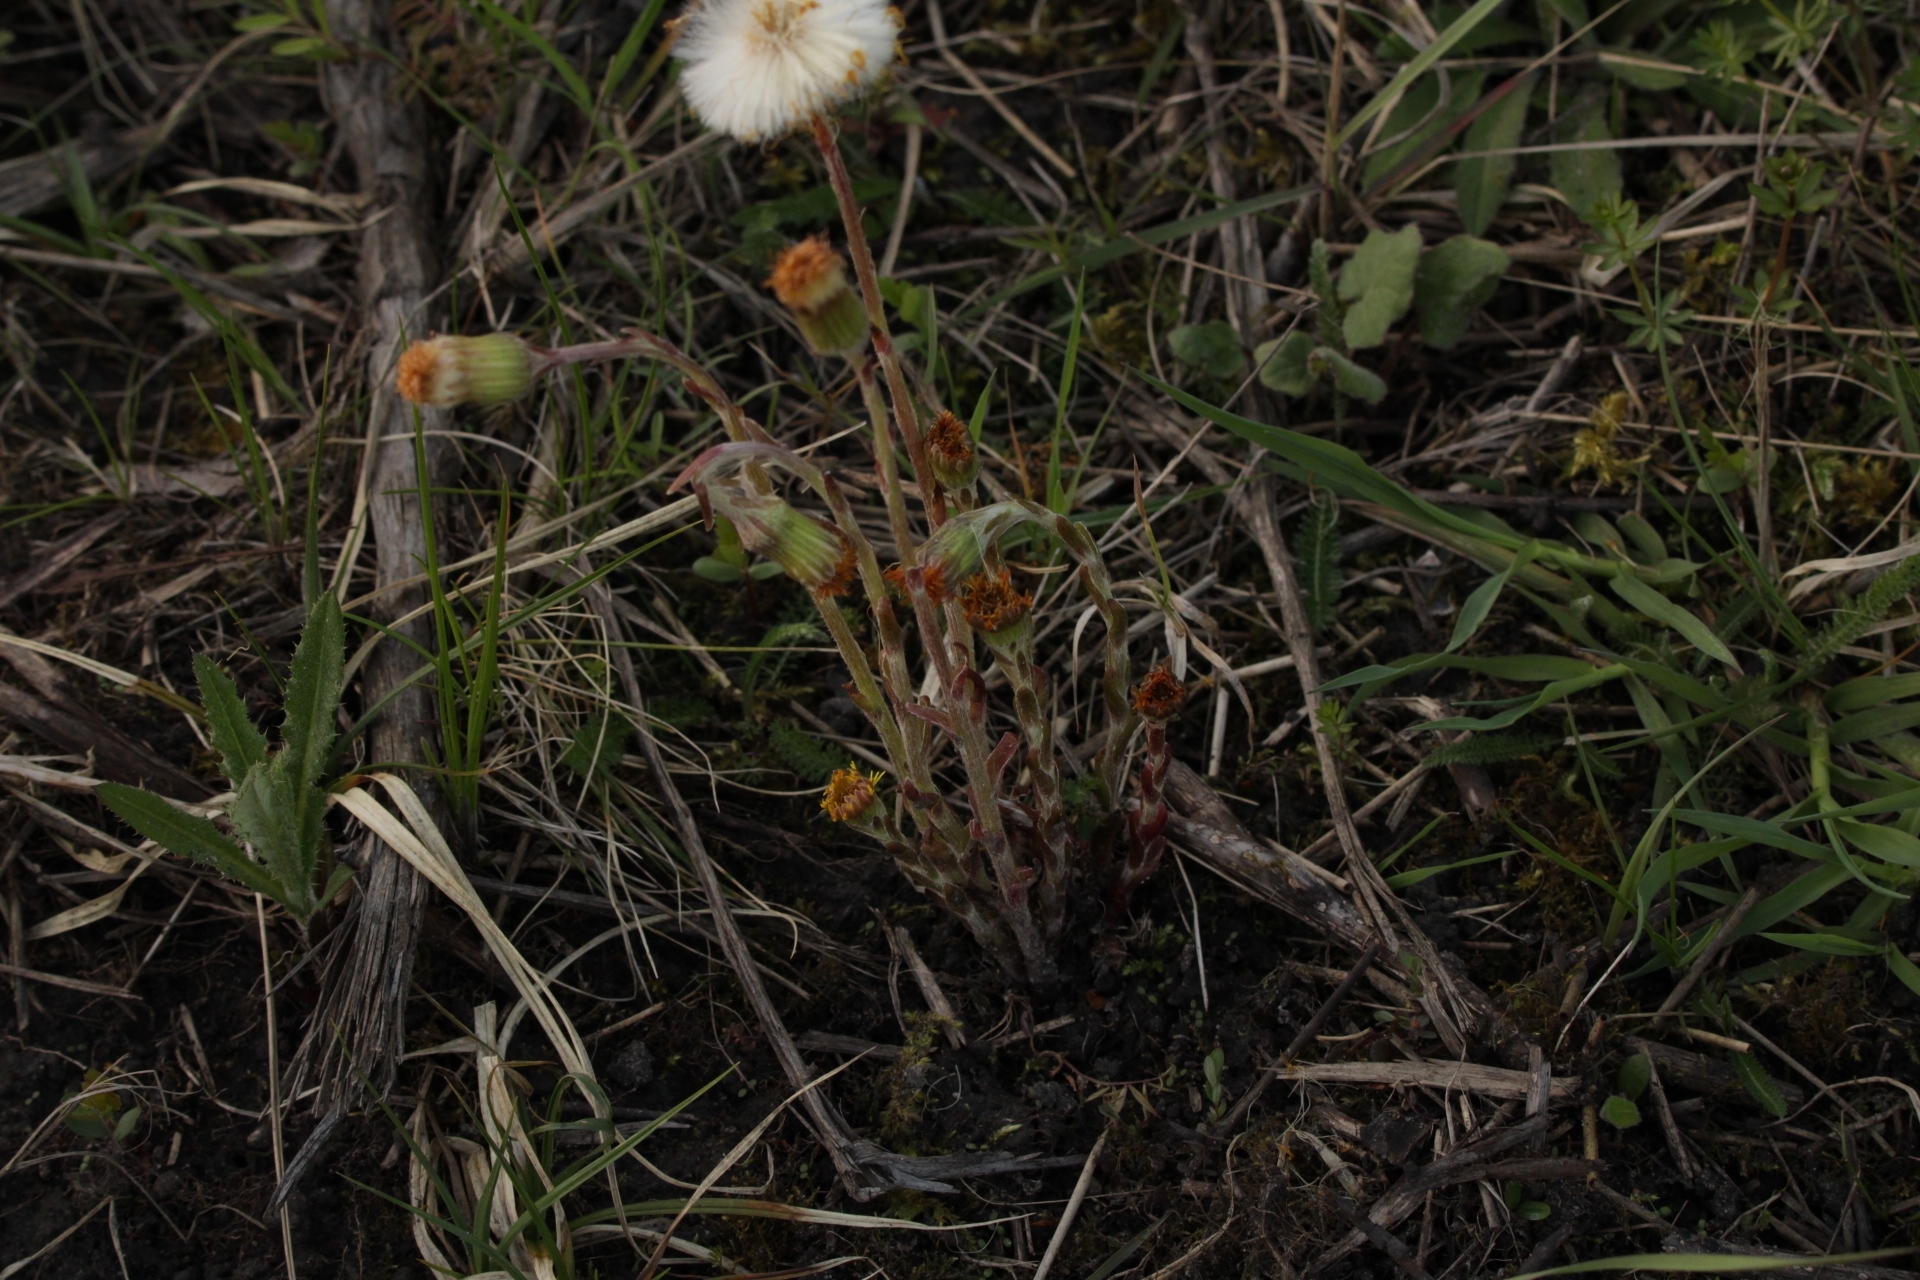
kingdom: Plantae
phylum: Tracheophyta
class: Magnoliopsida
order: Asterales
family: Asteraceae
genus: Tussilago
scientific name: Tussilago farfara
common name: Coltsfoot
